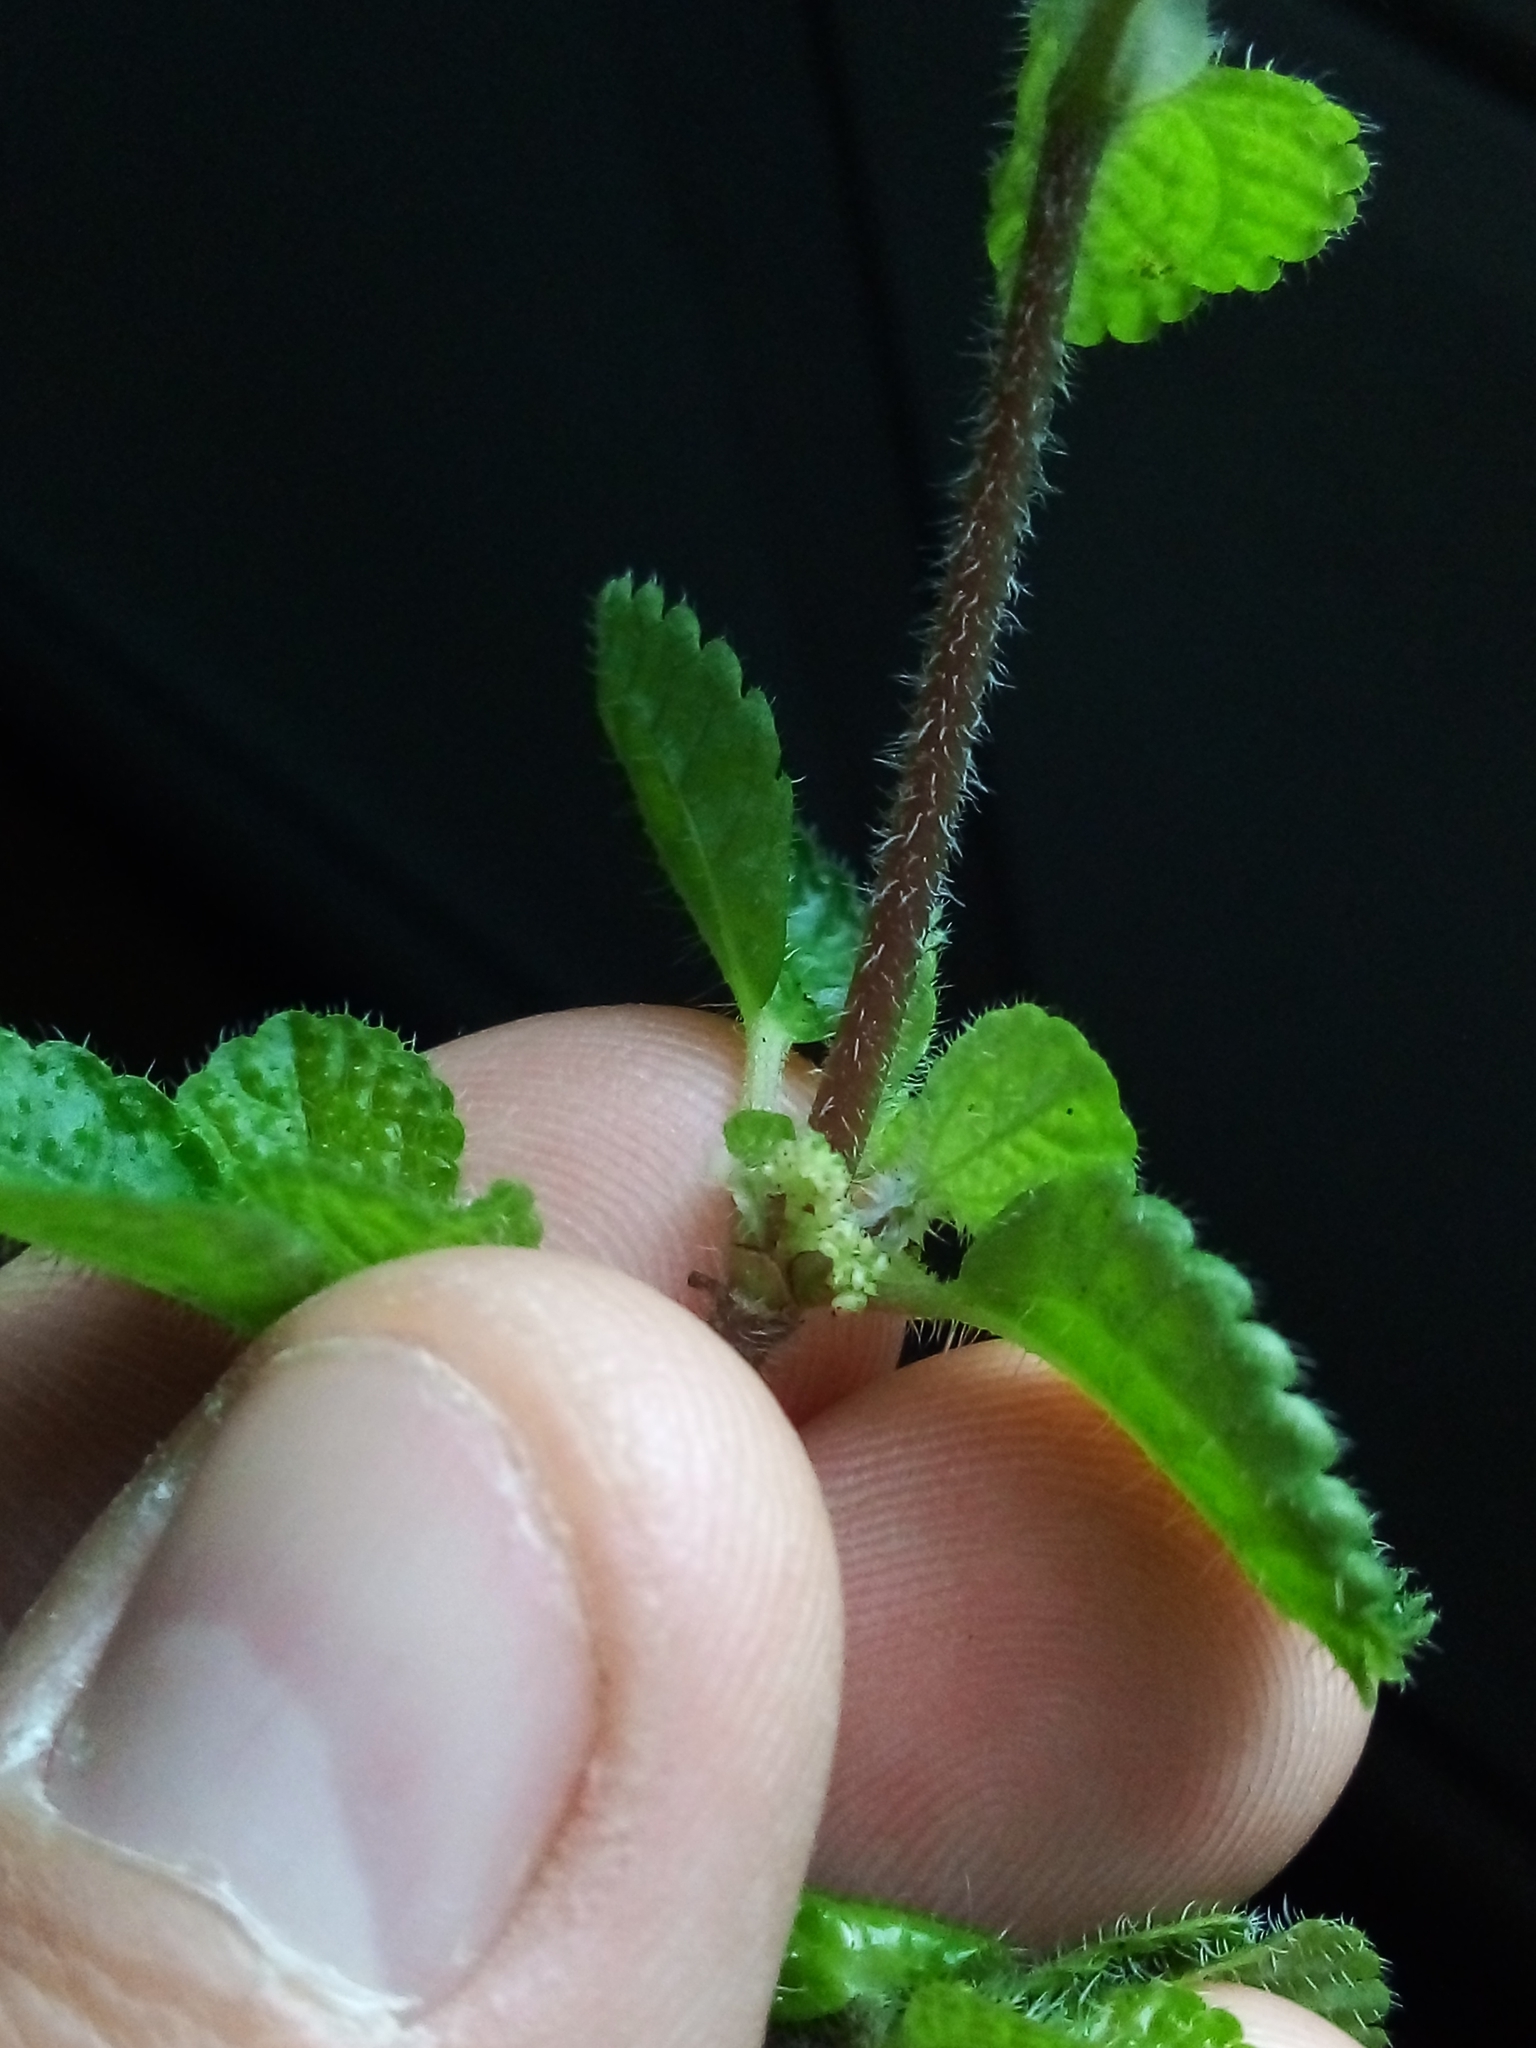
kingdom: Plantae
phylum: Tracheophyta
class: Magnoliopsida
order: Rosales
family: Urticaceae
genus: Pilea
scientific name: Pilea nummulariifolia
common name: Creeping-charlie
